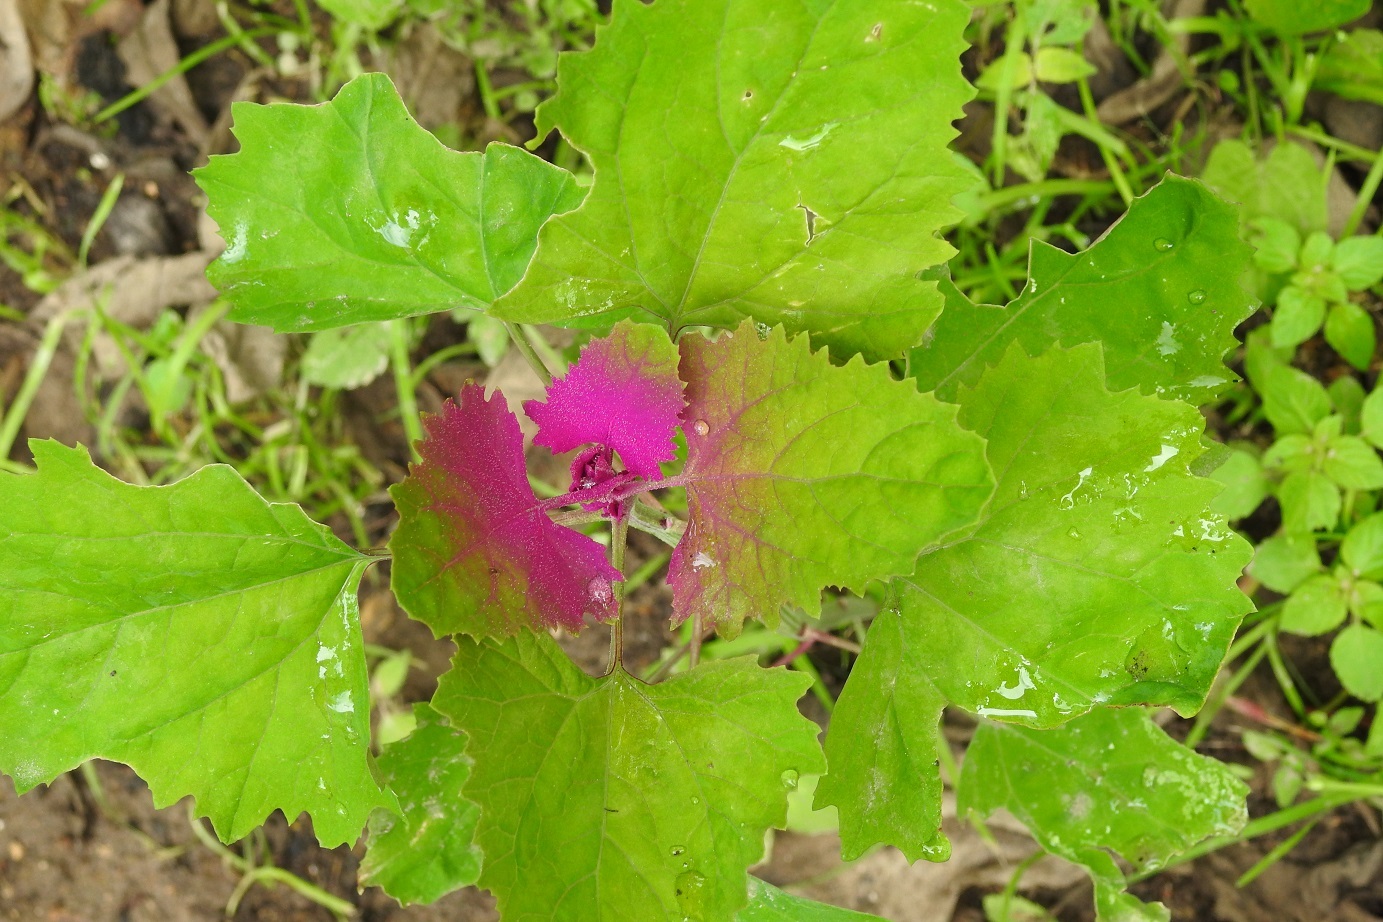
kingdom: Plantae
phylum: Tracheophyta
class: Magnoliopsida
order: Caryophyllales
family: Amaranthaceae
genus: Chenopodium
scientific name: Chenopodium giganteum
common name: Magentaspreen
